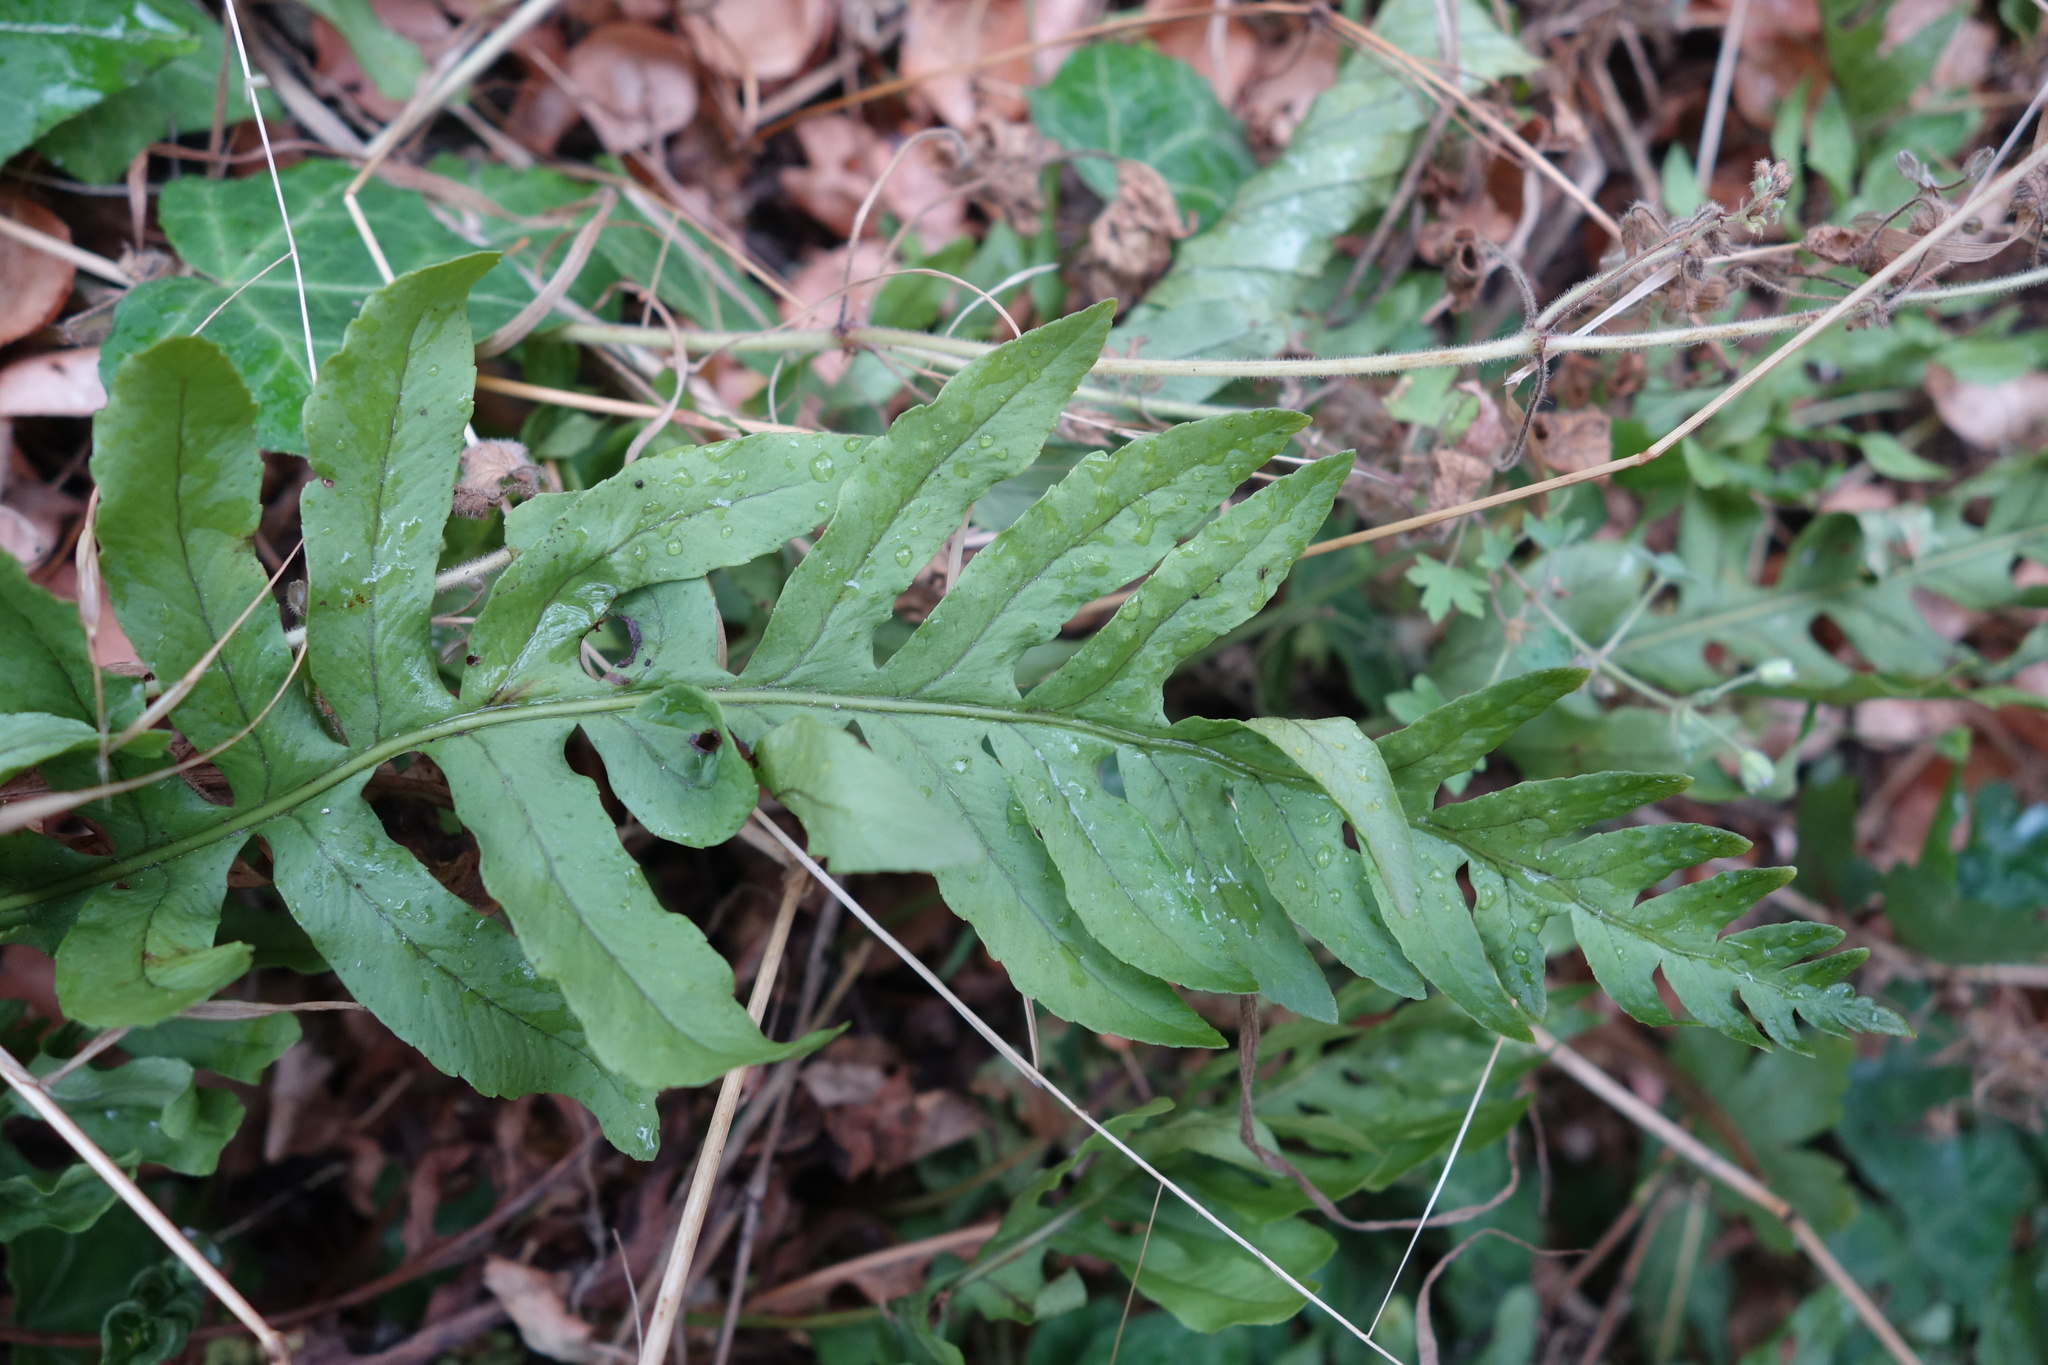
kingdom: Plantae
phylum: Tracheophyta
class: Polypodiopsida
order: Polypodiales
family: Polypodiaceae
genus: Polypodium
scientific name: Polypodium vulgare
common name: Common polypody
